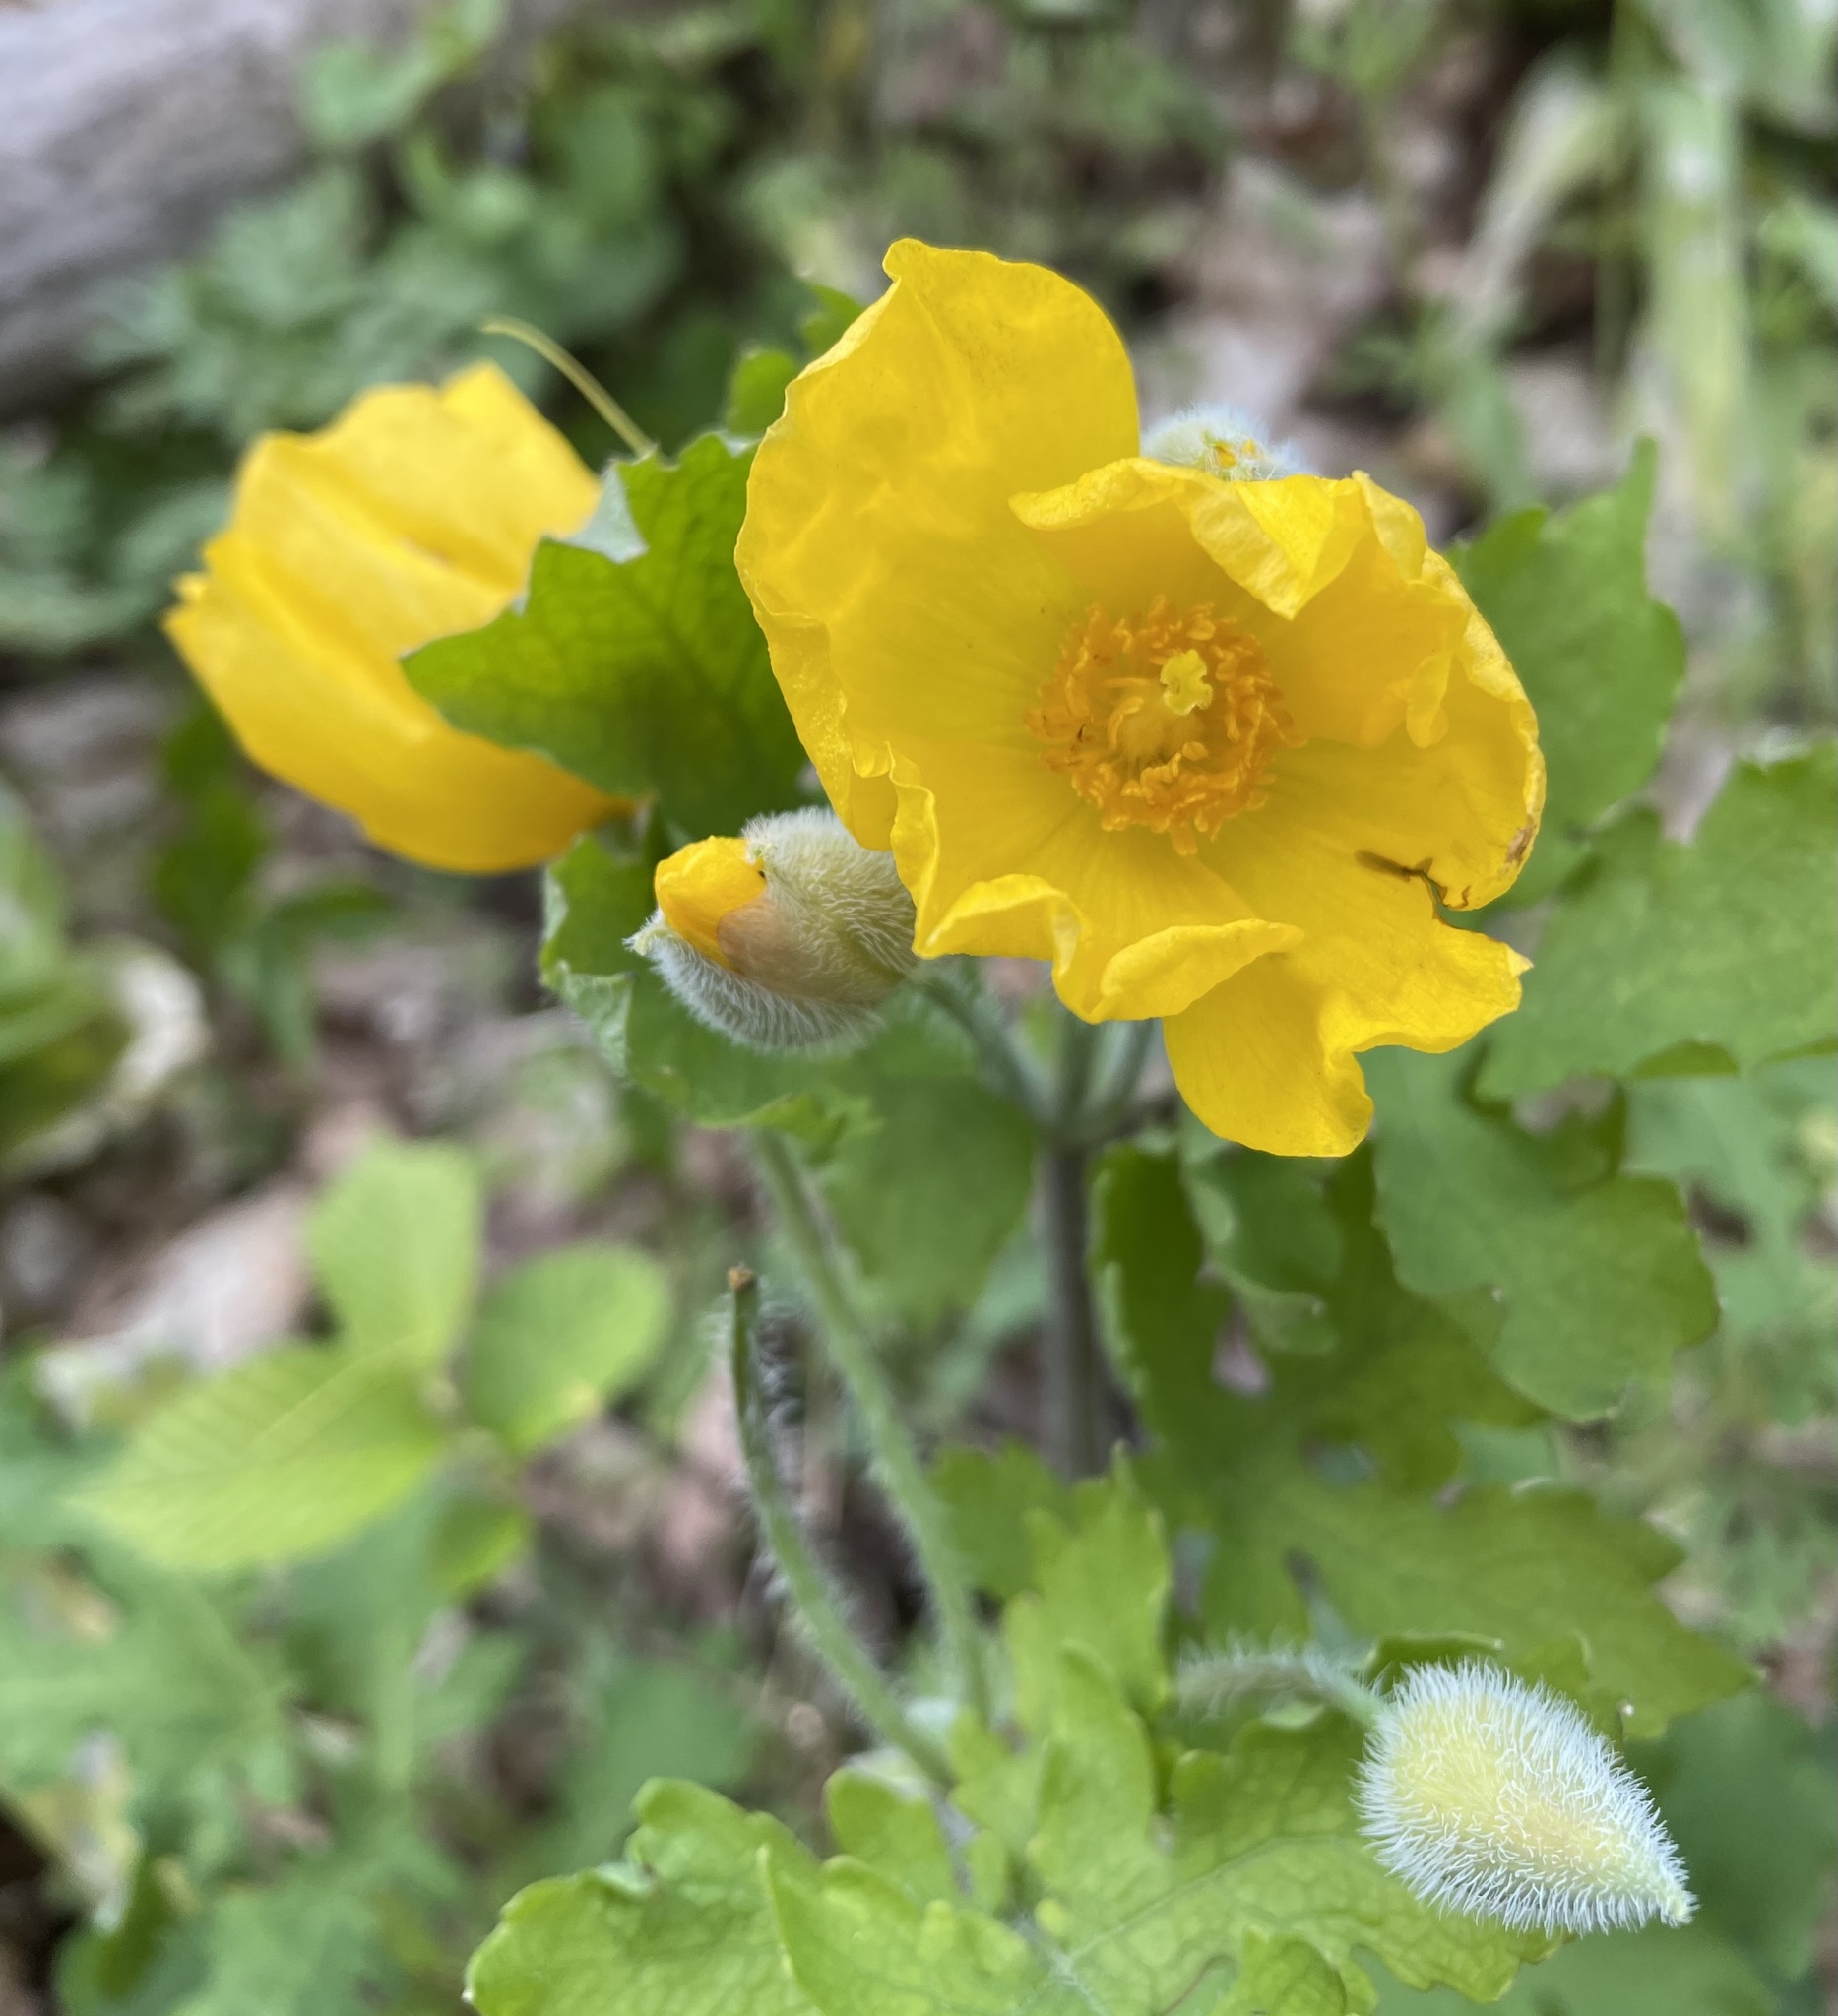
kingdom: Plantae
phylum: Tracheophyta
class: Magnoliopsida
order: Ranunculales
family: Papaveraceae
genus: Stylophorum
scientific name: Stylophorum diphyllum
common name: Celandine poppy
